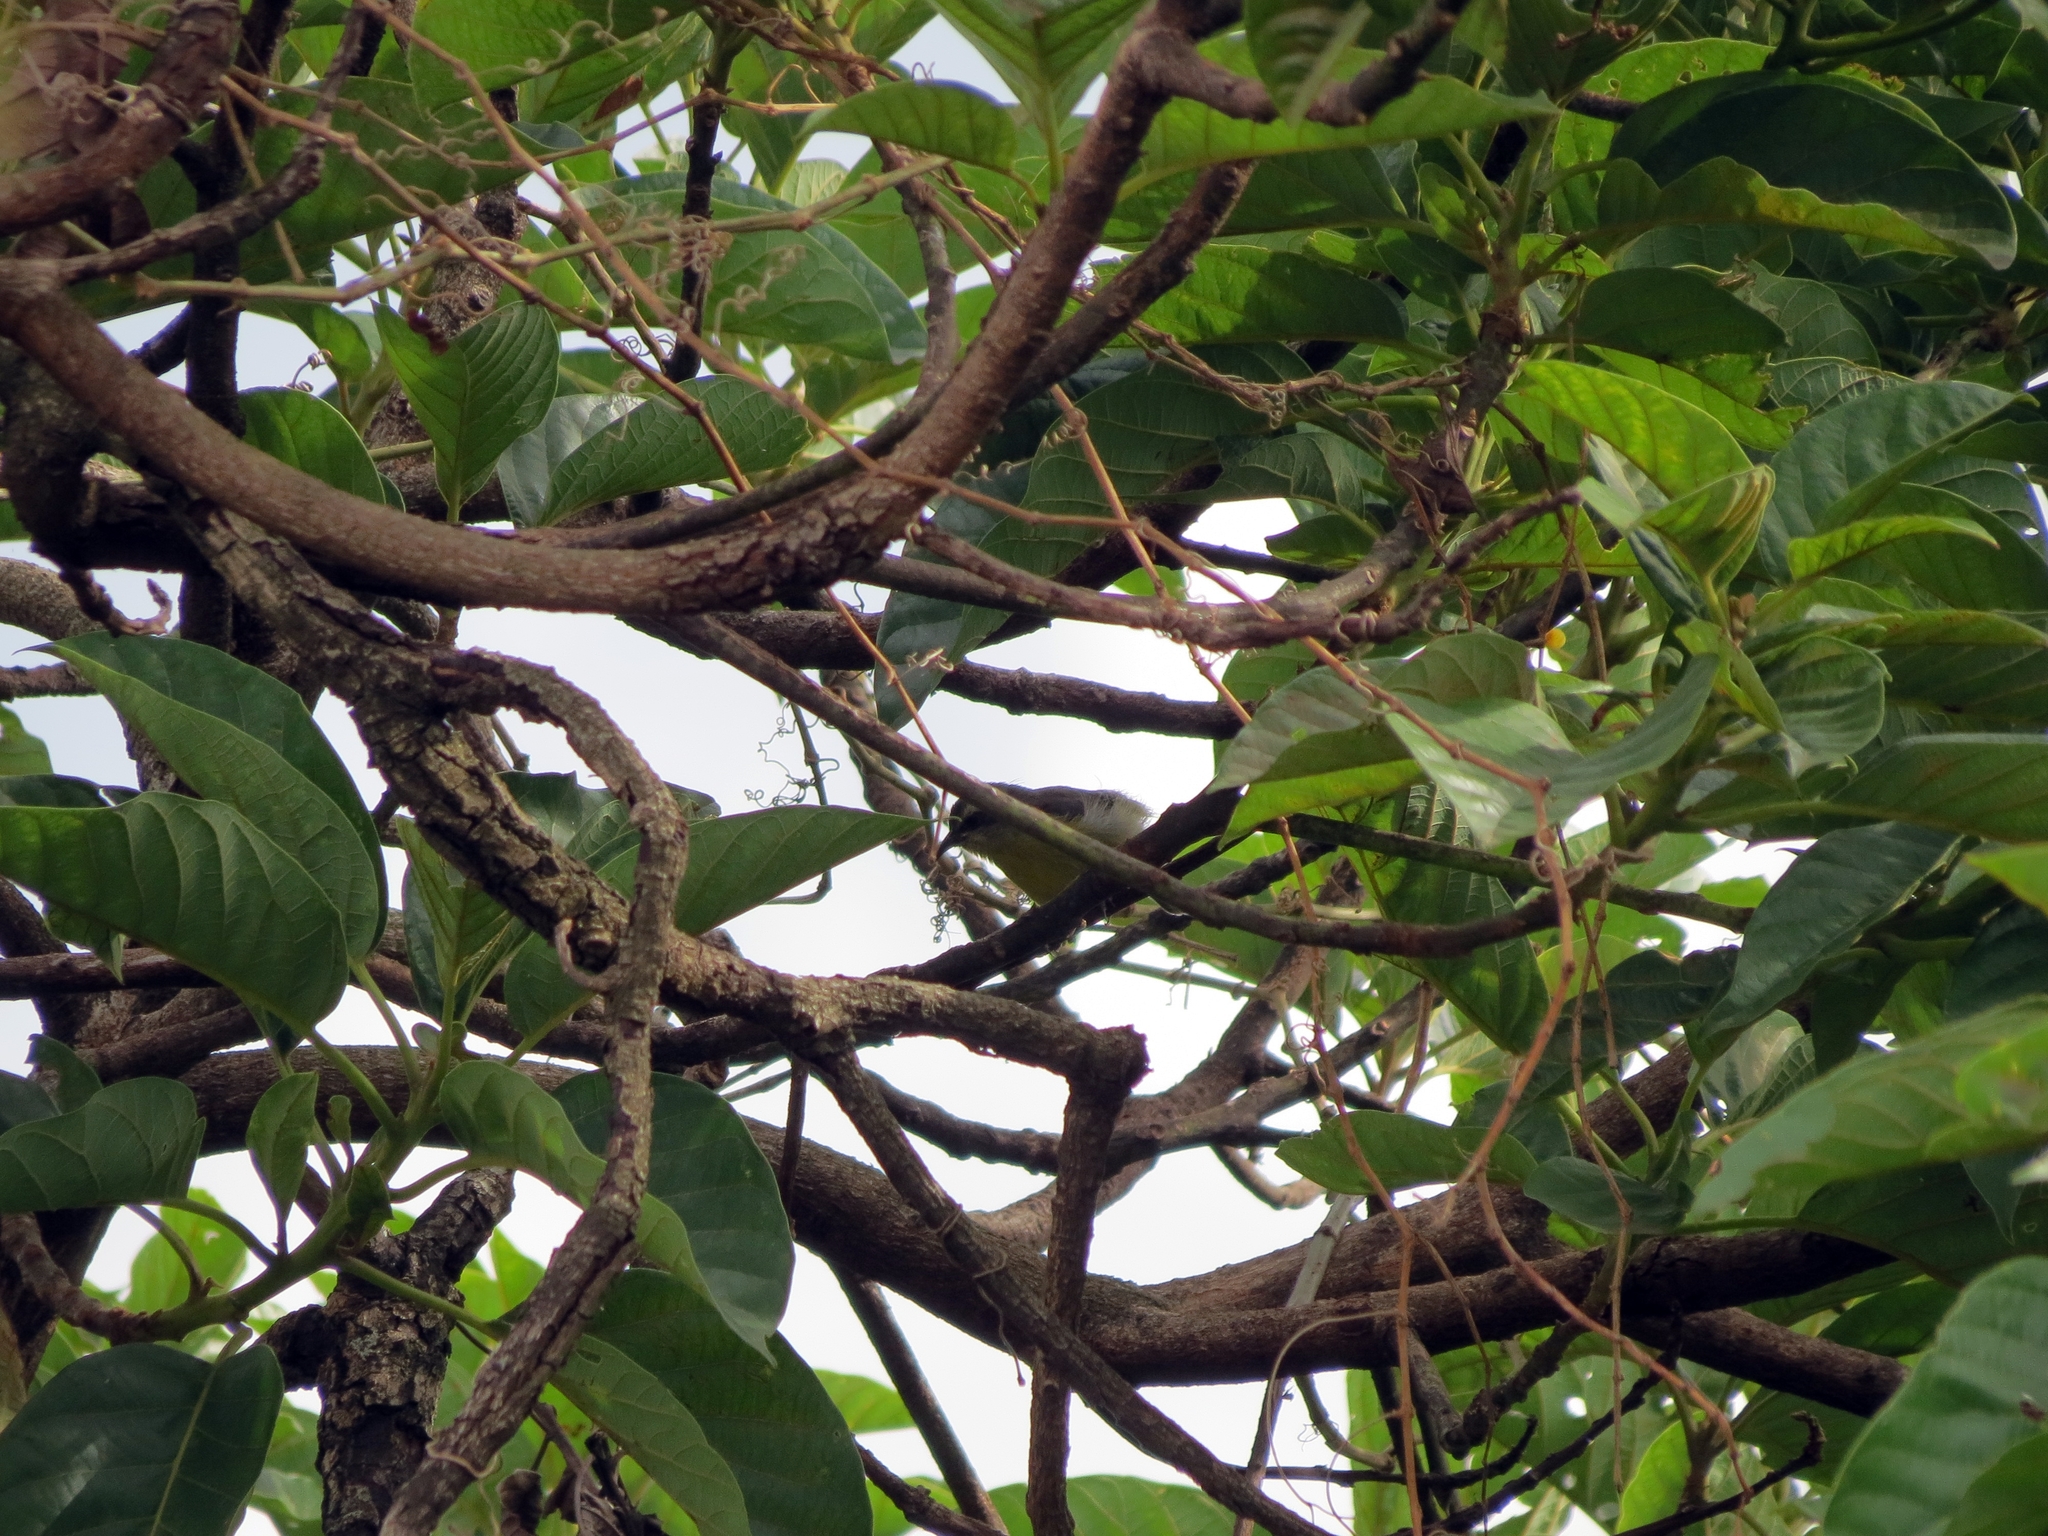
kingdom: Animalia
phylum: Chordata
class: Aves
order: Passeriformes
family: Thraupidae
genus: Coereba
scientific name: Coereba flaveola
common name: Bananaquit
